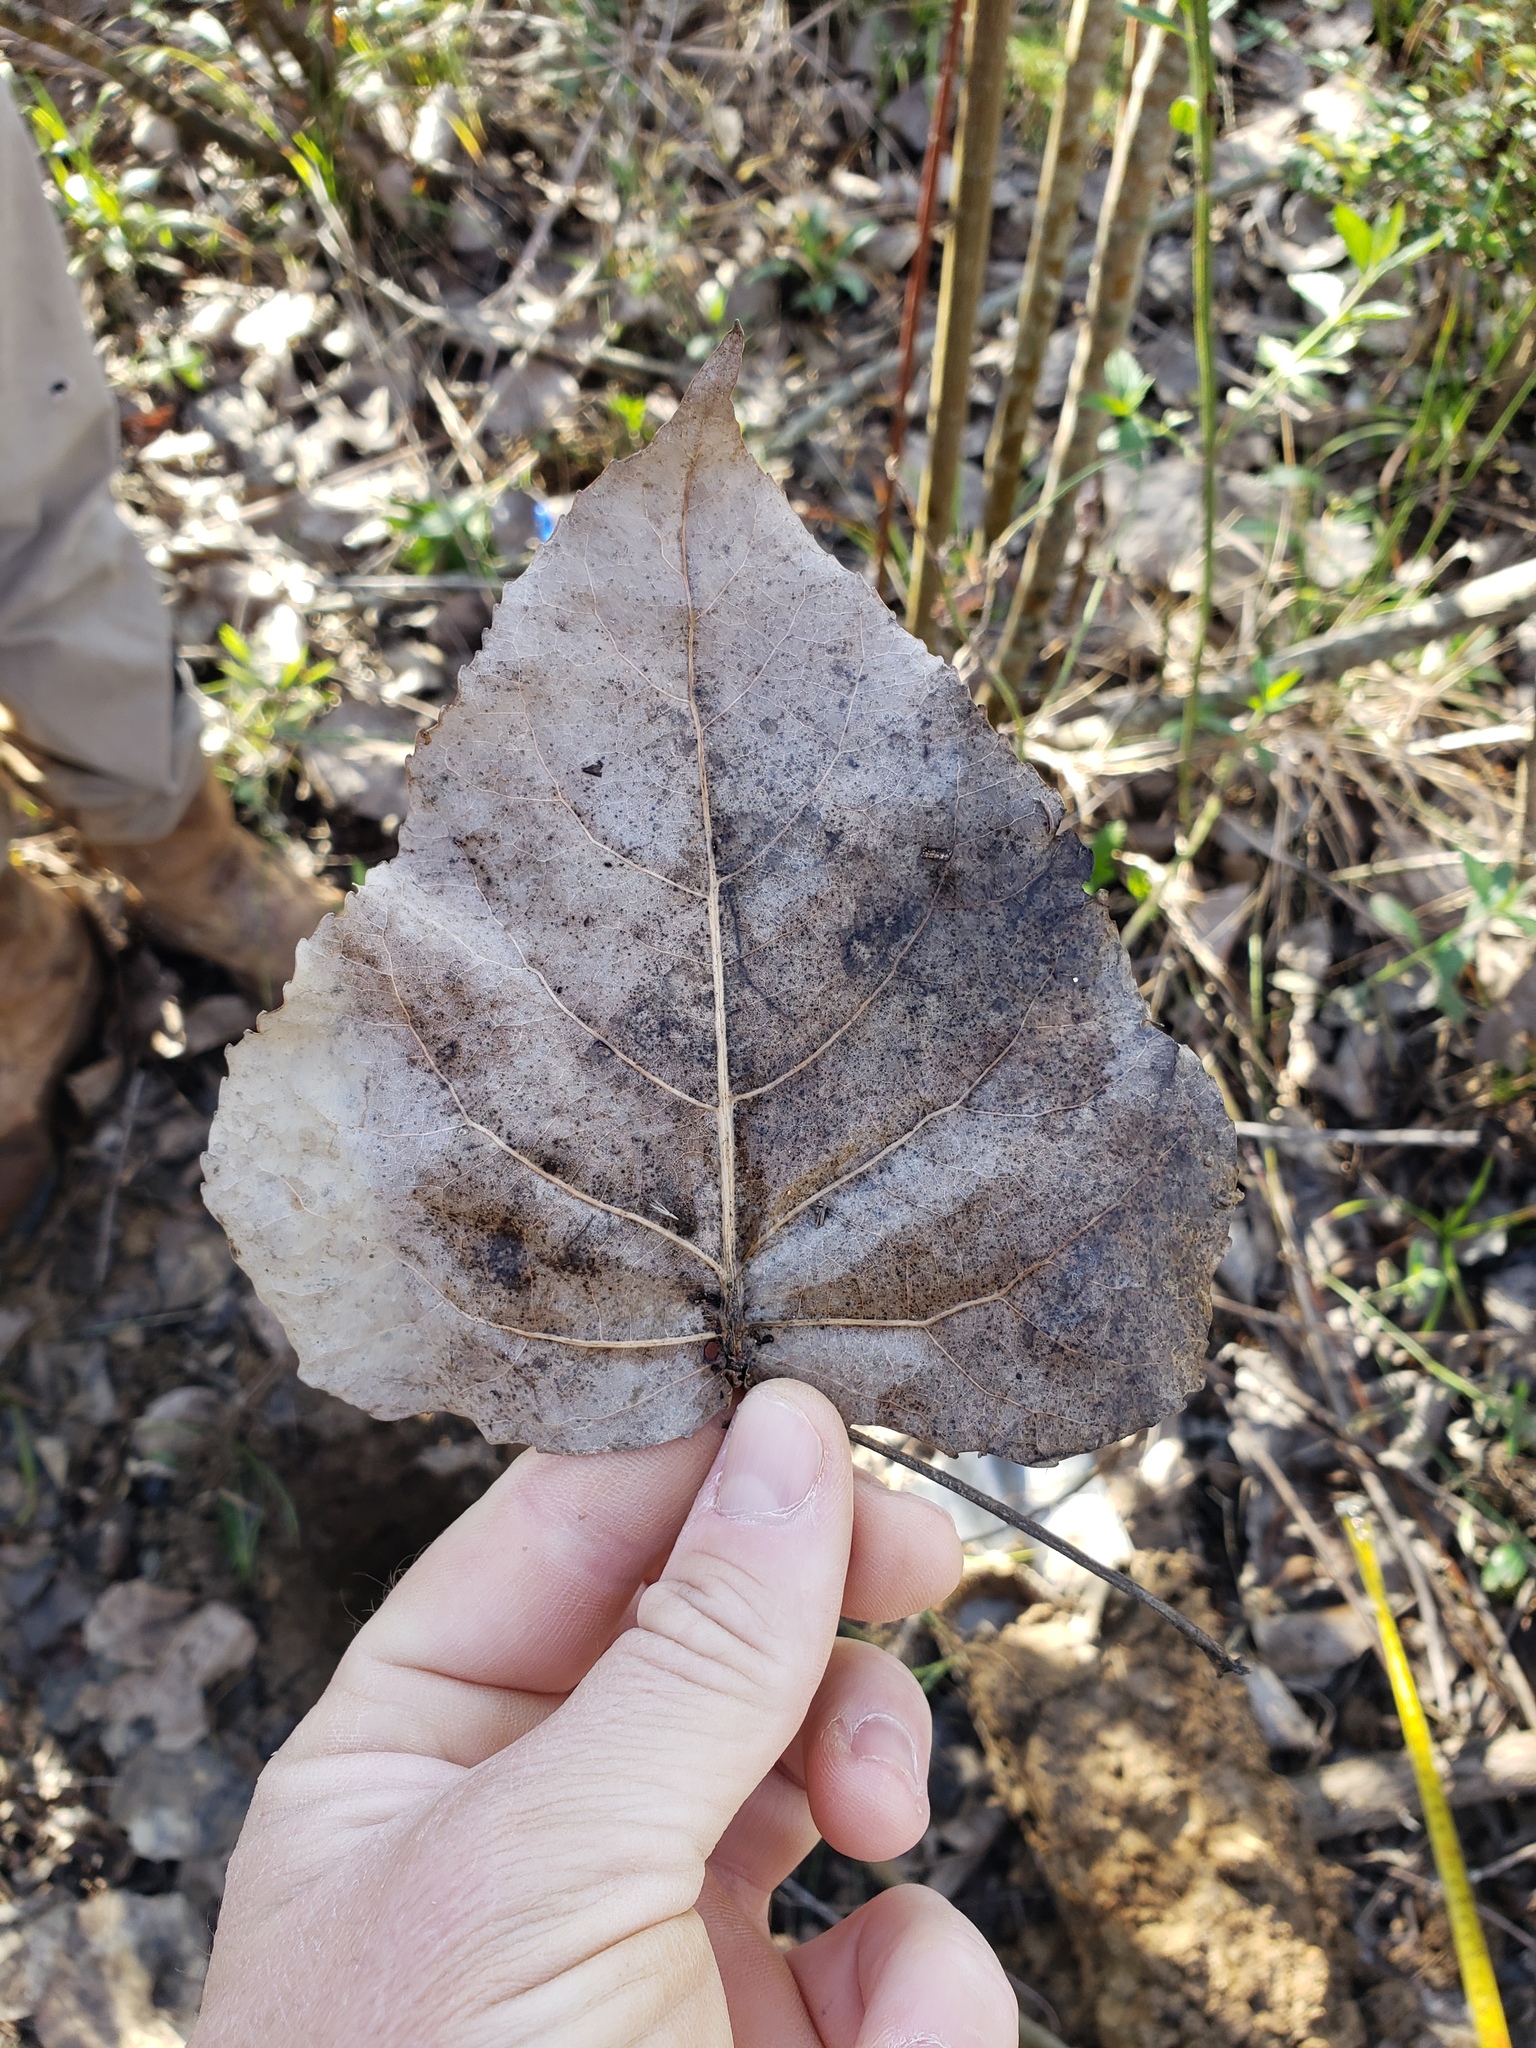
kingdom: Plantae
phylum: Tracheophyta
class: Magnoliopsida
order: Malpighiales
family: Salicaceae
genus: Populus
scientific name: Populus deltoides
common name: Eastern cottonwood
